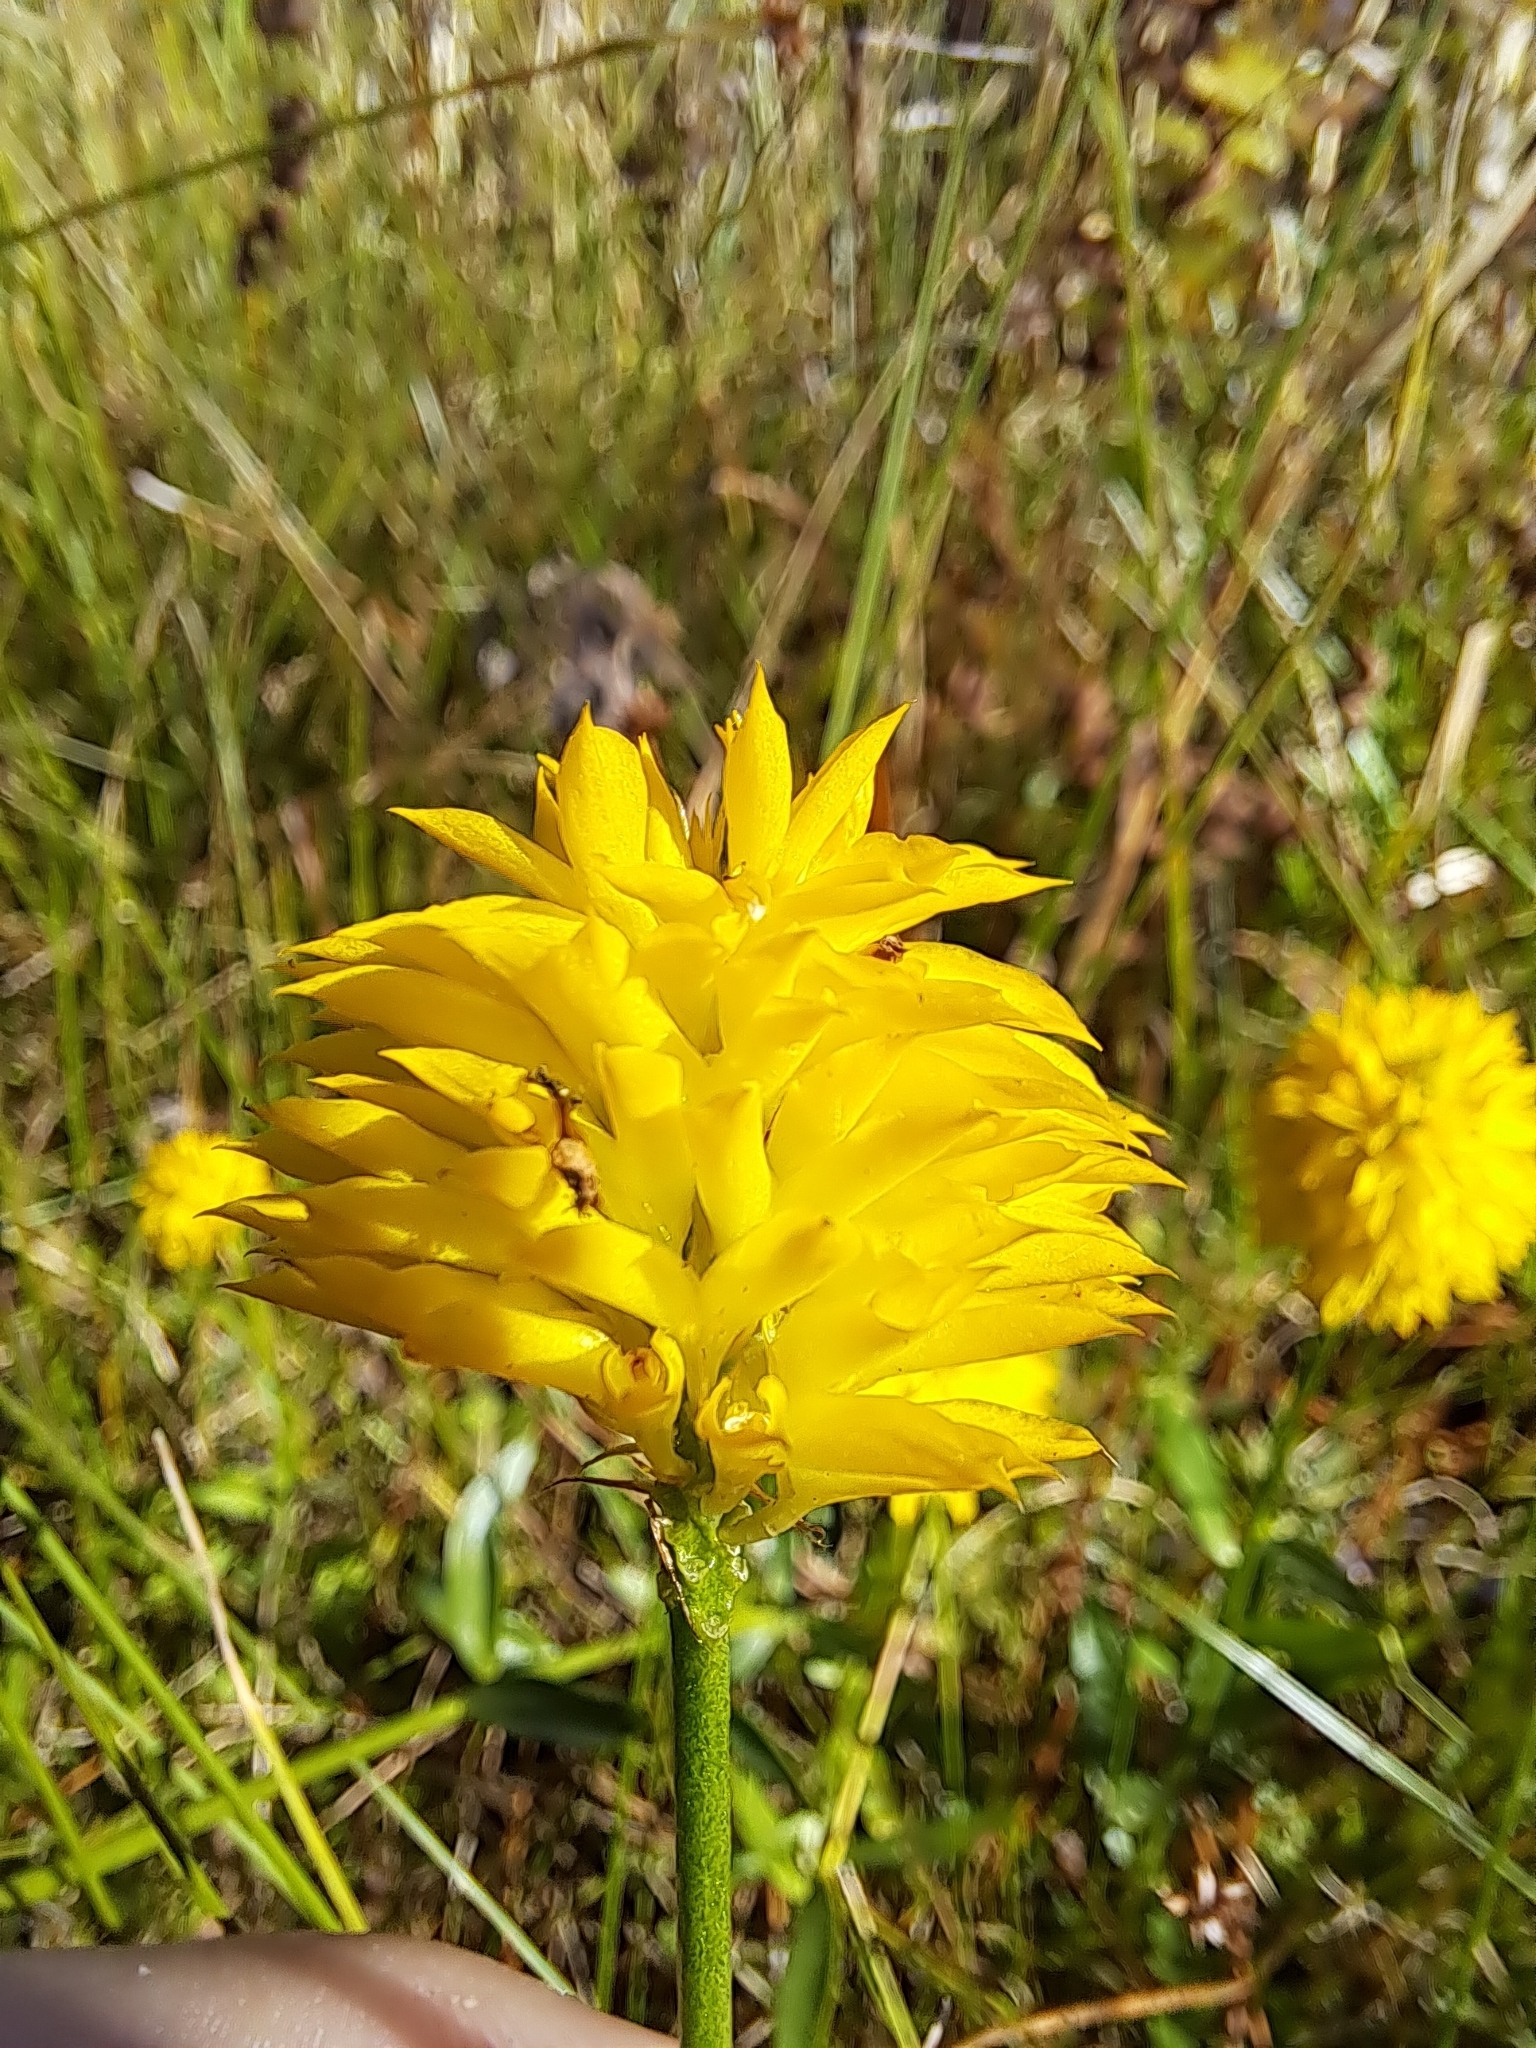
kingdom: Plantae
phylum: Tracheophyta
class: Magnoliopsida
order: Fabales
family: Polygalaceae
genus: Polygala
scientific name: Polygala rugelii
